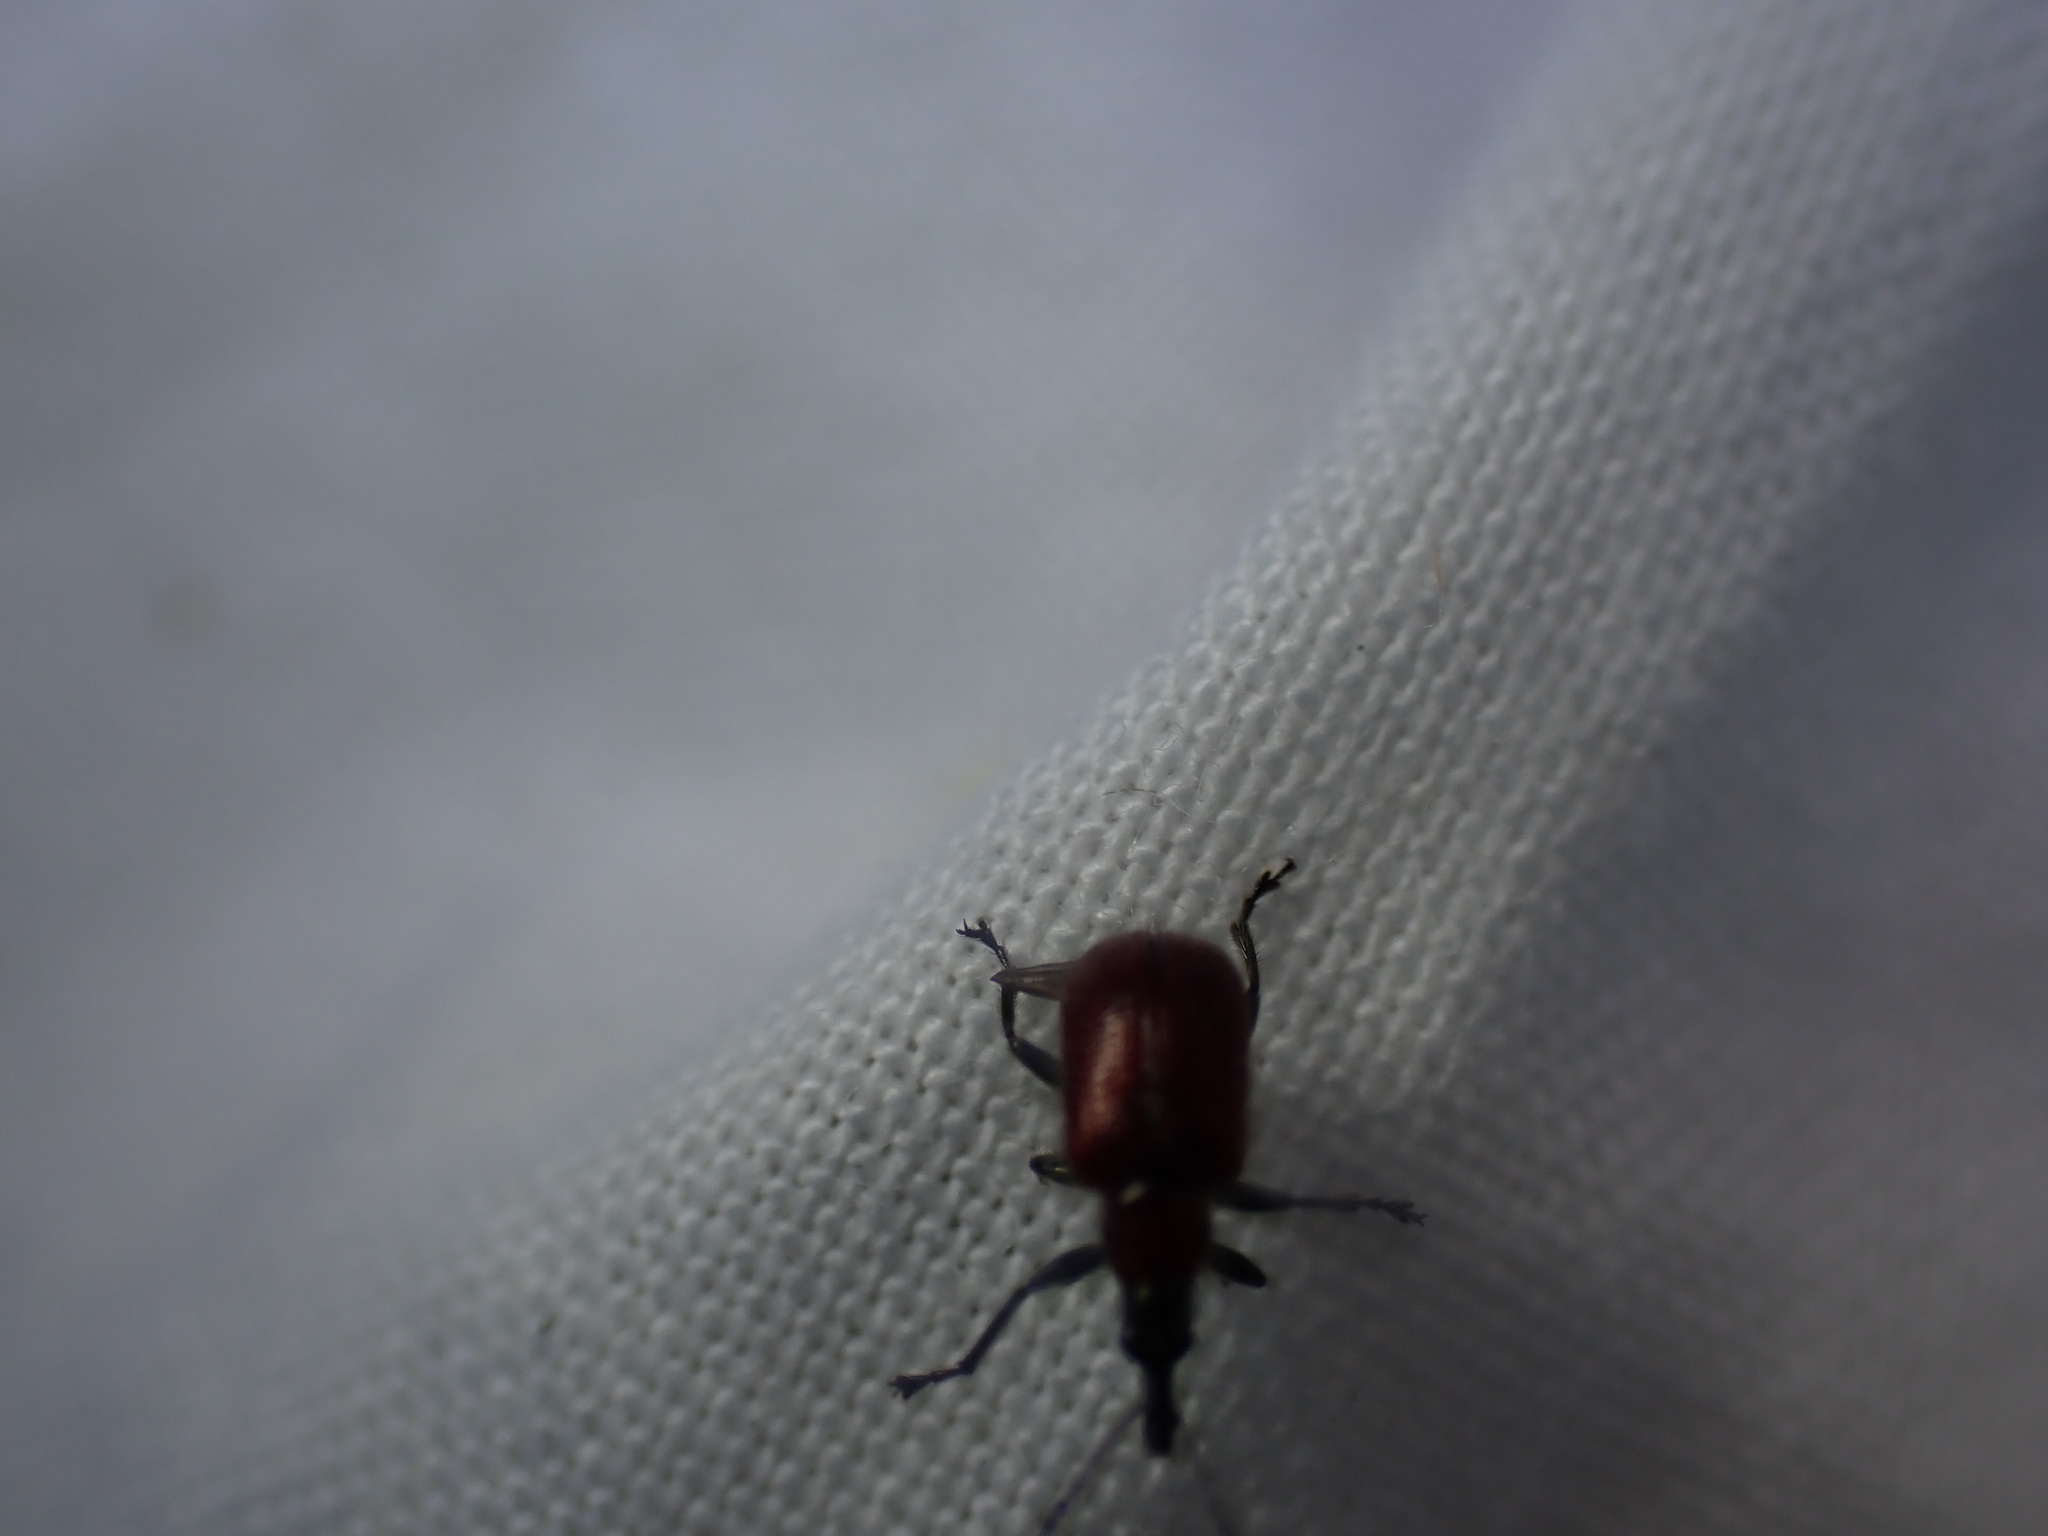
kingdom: Animalia
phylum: Arthropoda
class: Insecta
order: Coleoptera
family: Attelabidae
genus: Lasiorhynchites
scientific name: Lasiorhynchites caeruleocephalus
